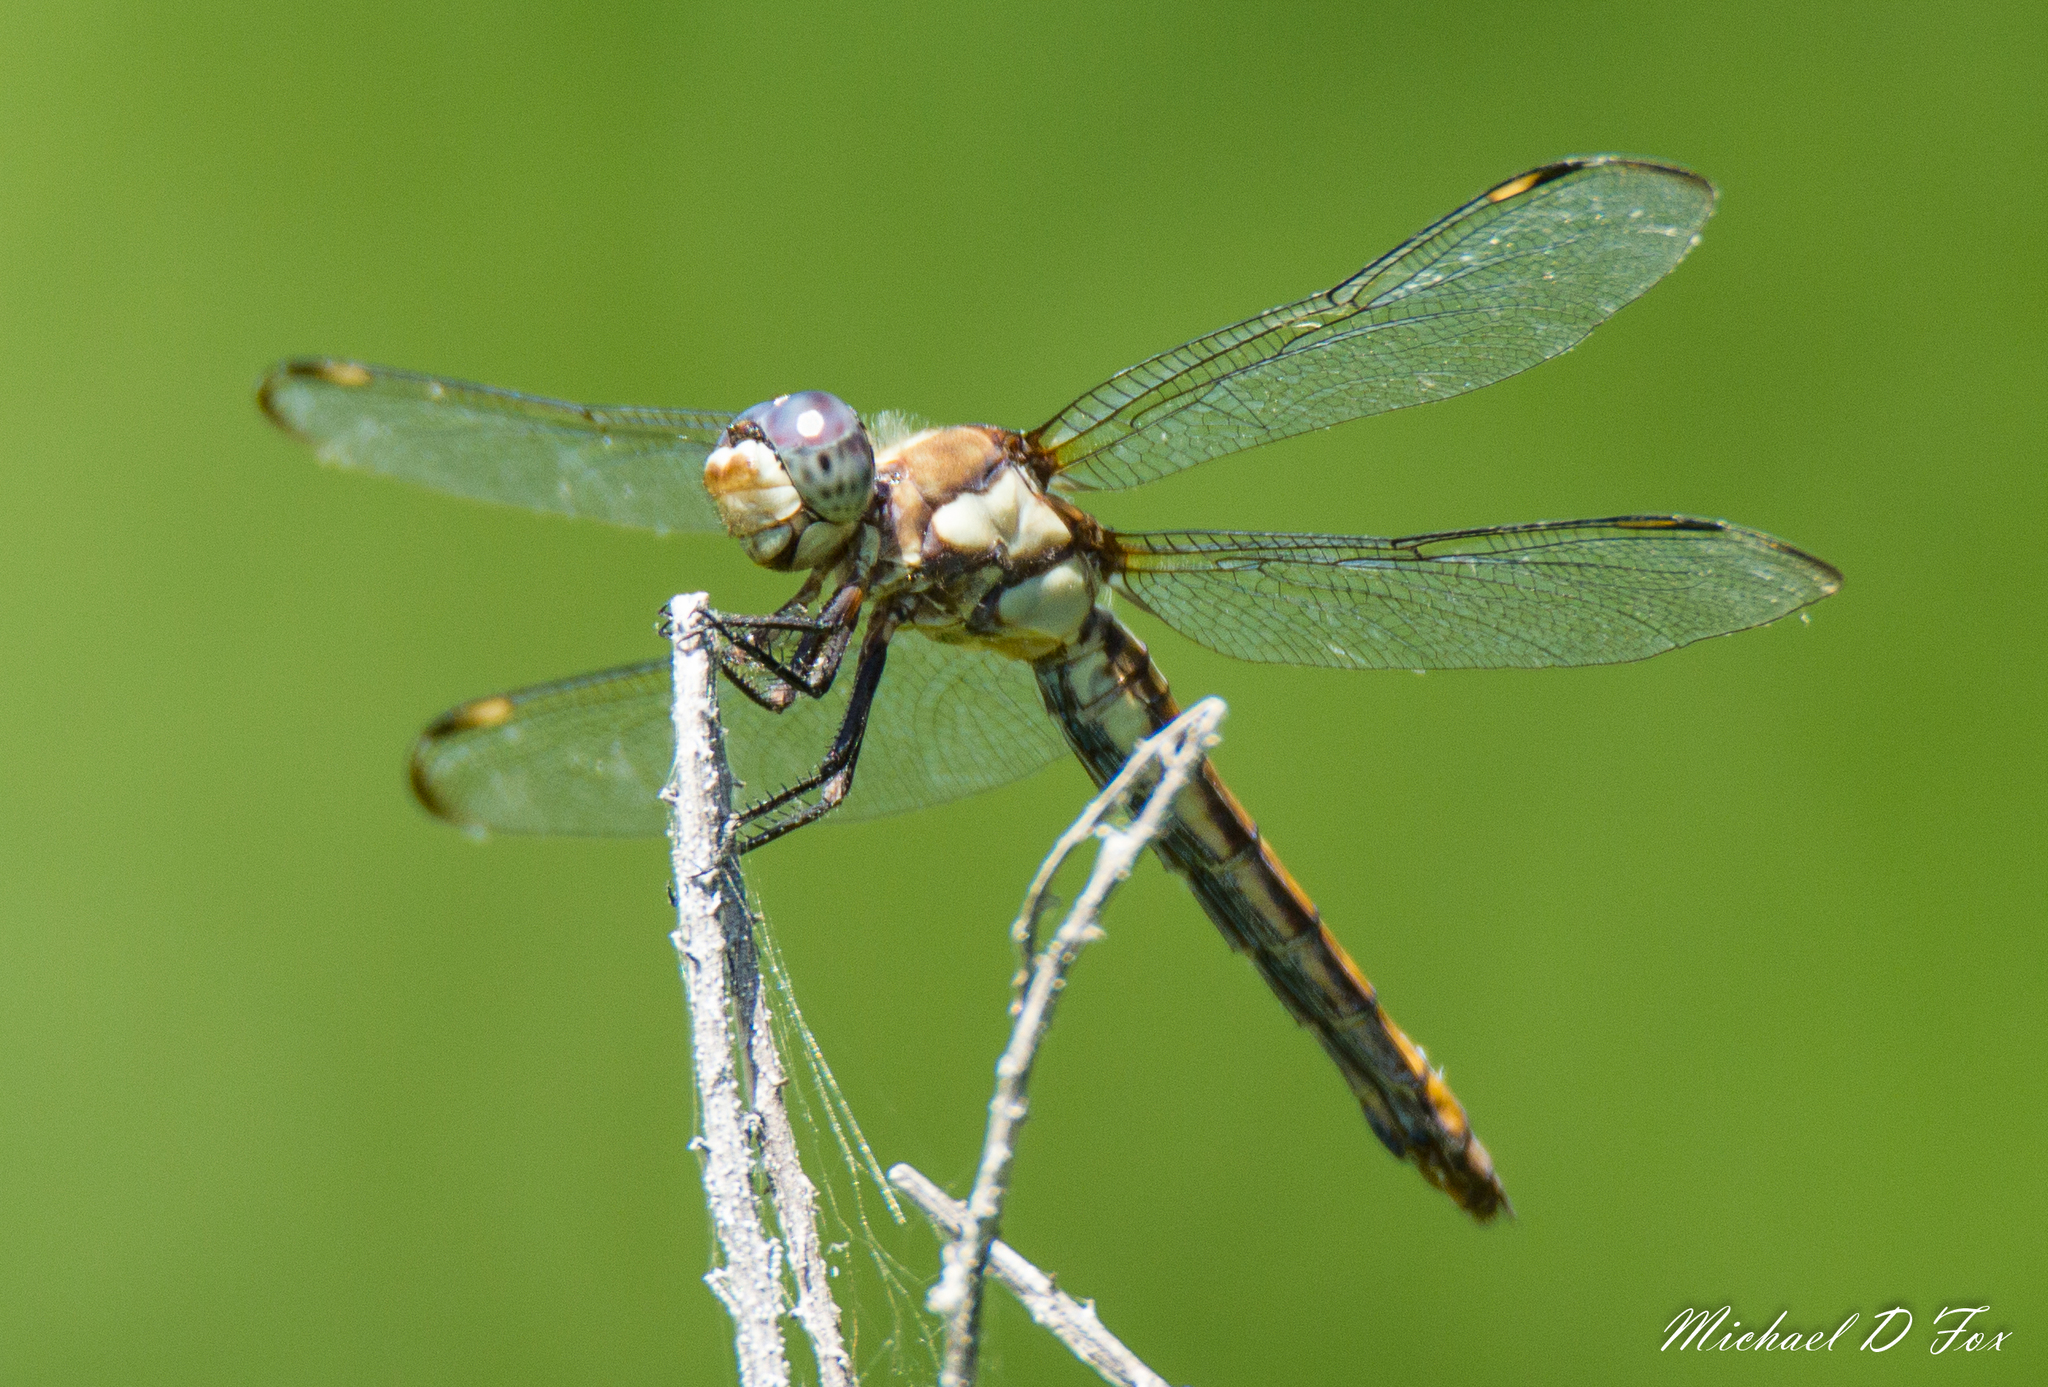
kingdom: Animalia
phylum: Arthropoda
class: Insecta
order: Odonata
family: Libellulidae
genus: Libellula
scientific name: Libellula comanche
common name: Comanche skimmer
